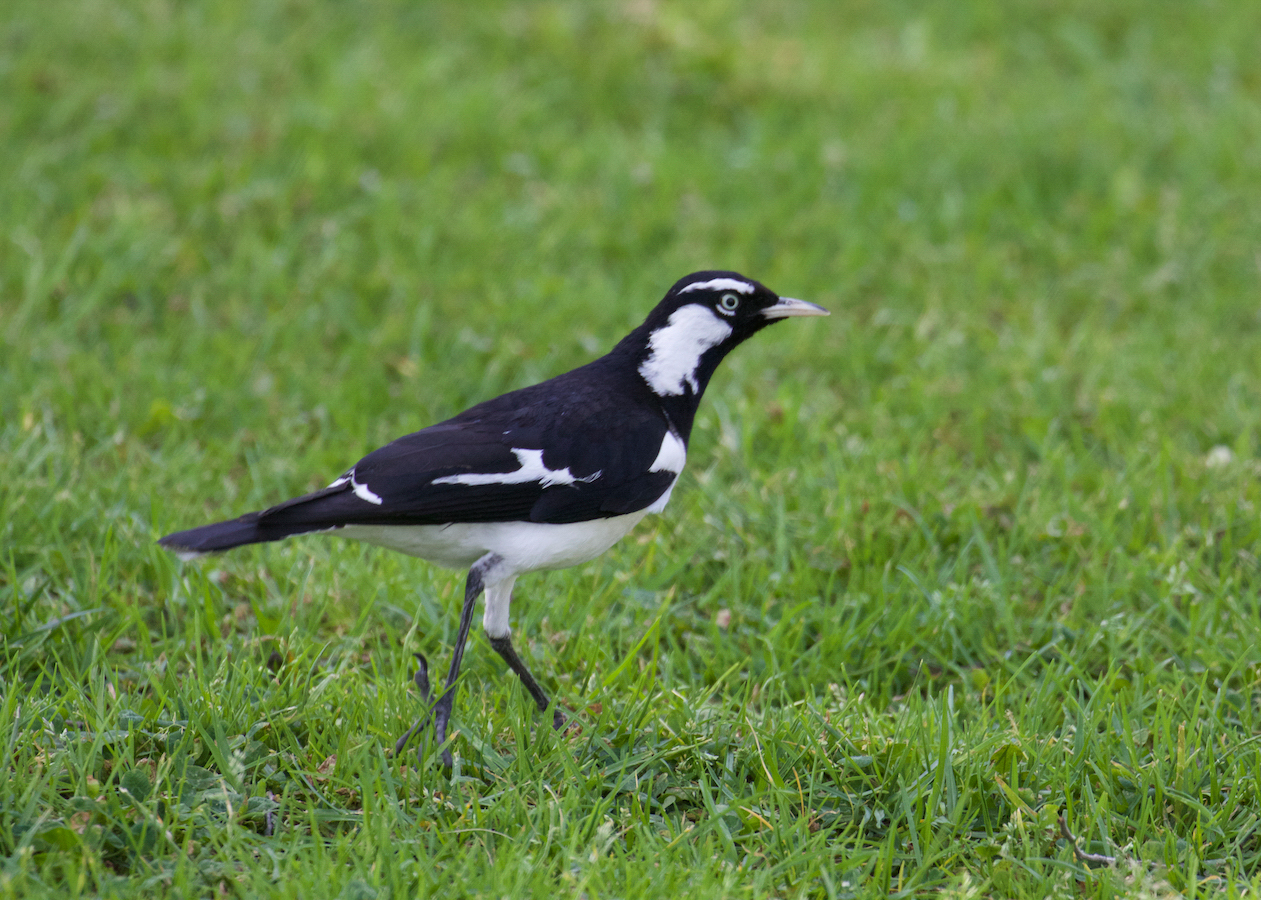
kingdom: Animalia
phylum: Chordata
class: Aves
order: Passeriformes
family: Monarchidae
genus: Grallina
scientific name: Grallina cyanoleuca
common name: Magpie-lark
